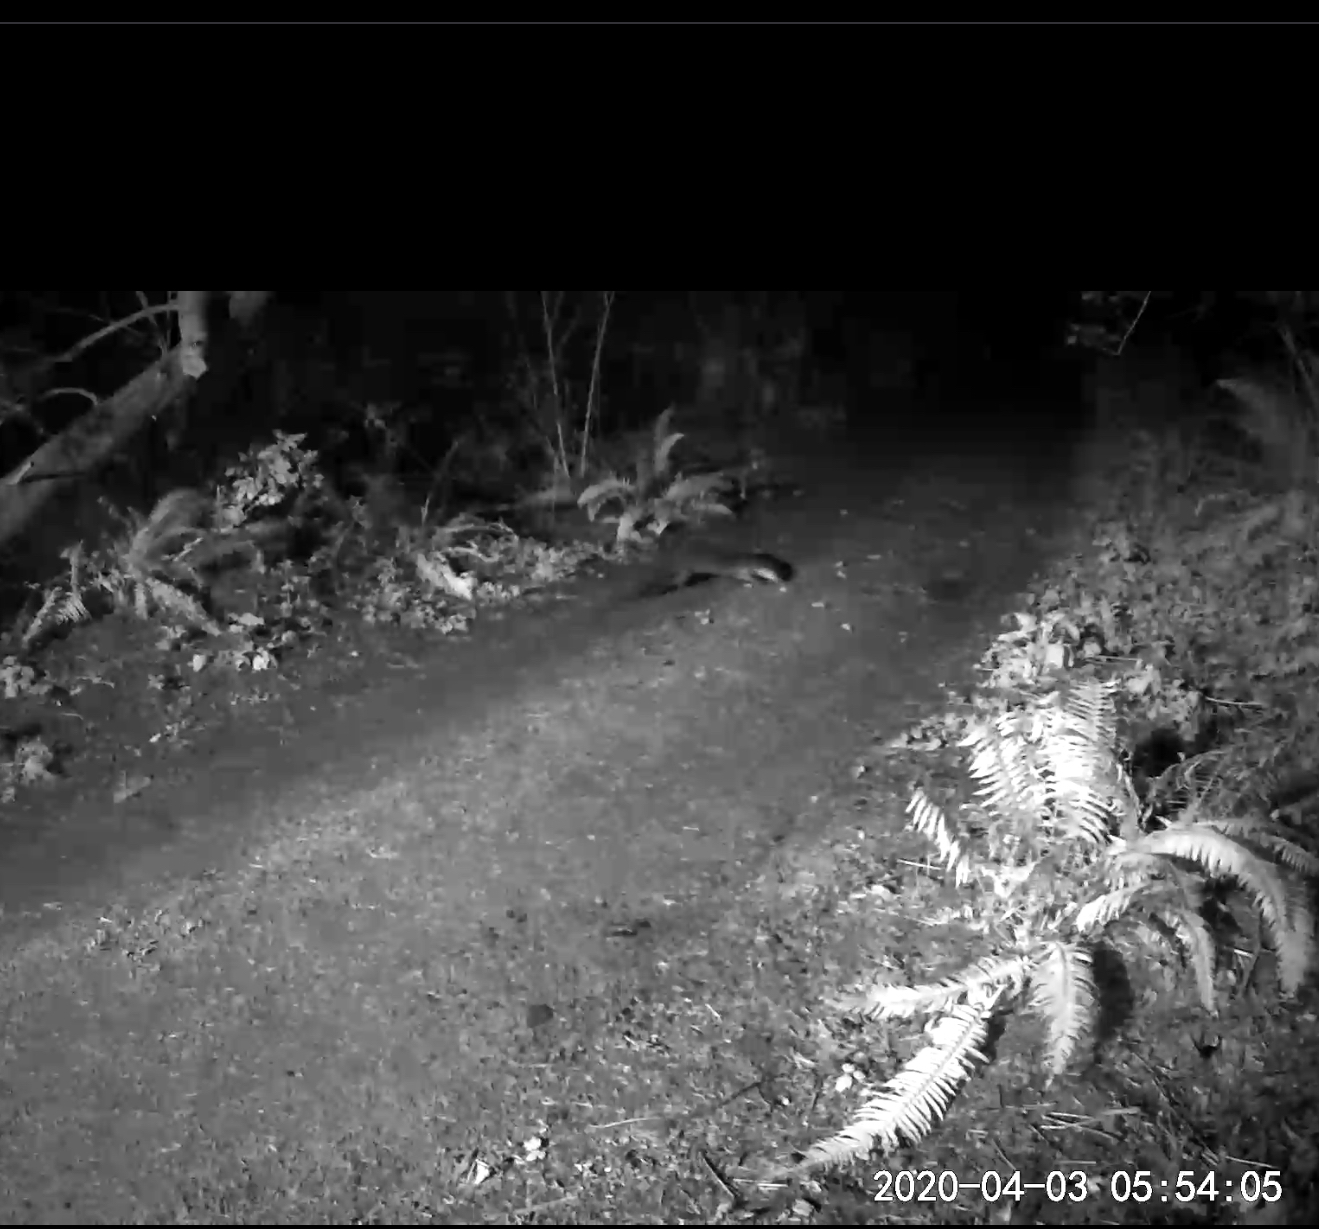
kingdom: Animalia
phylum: Chordata
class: Mammalia
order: Carnivora
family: Mustelidae
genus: Lontra
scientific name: Lontra canadensis
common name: North american river otter
